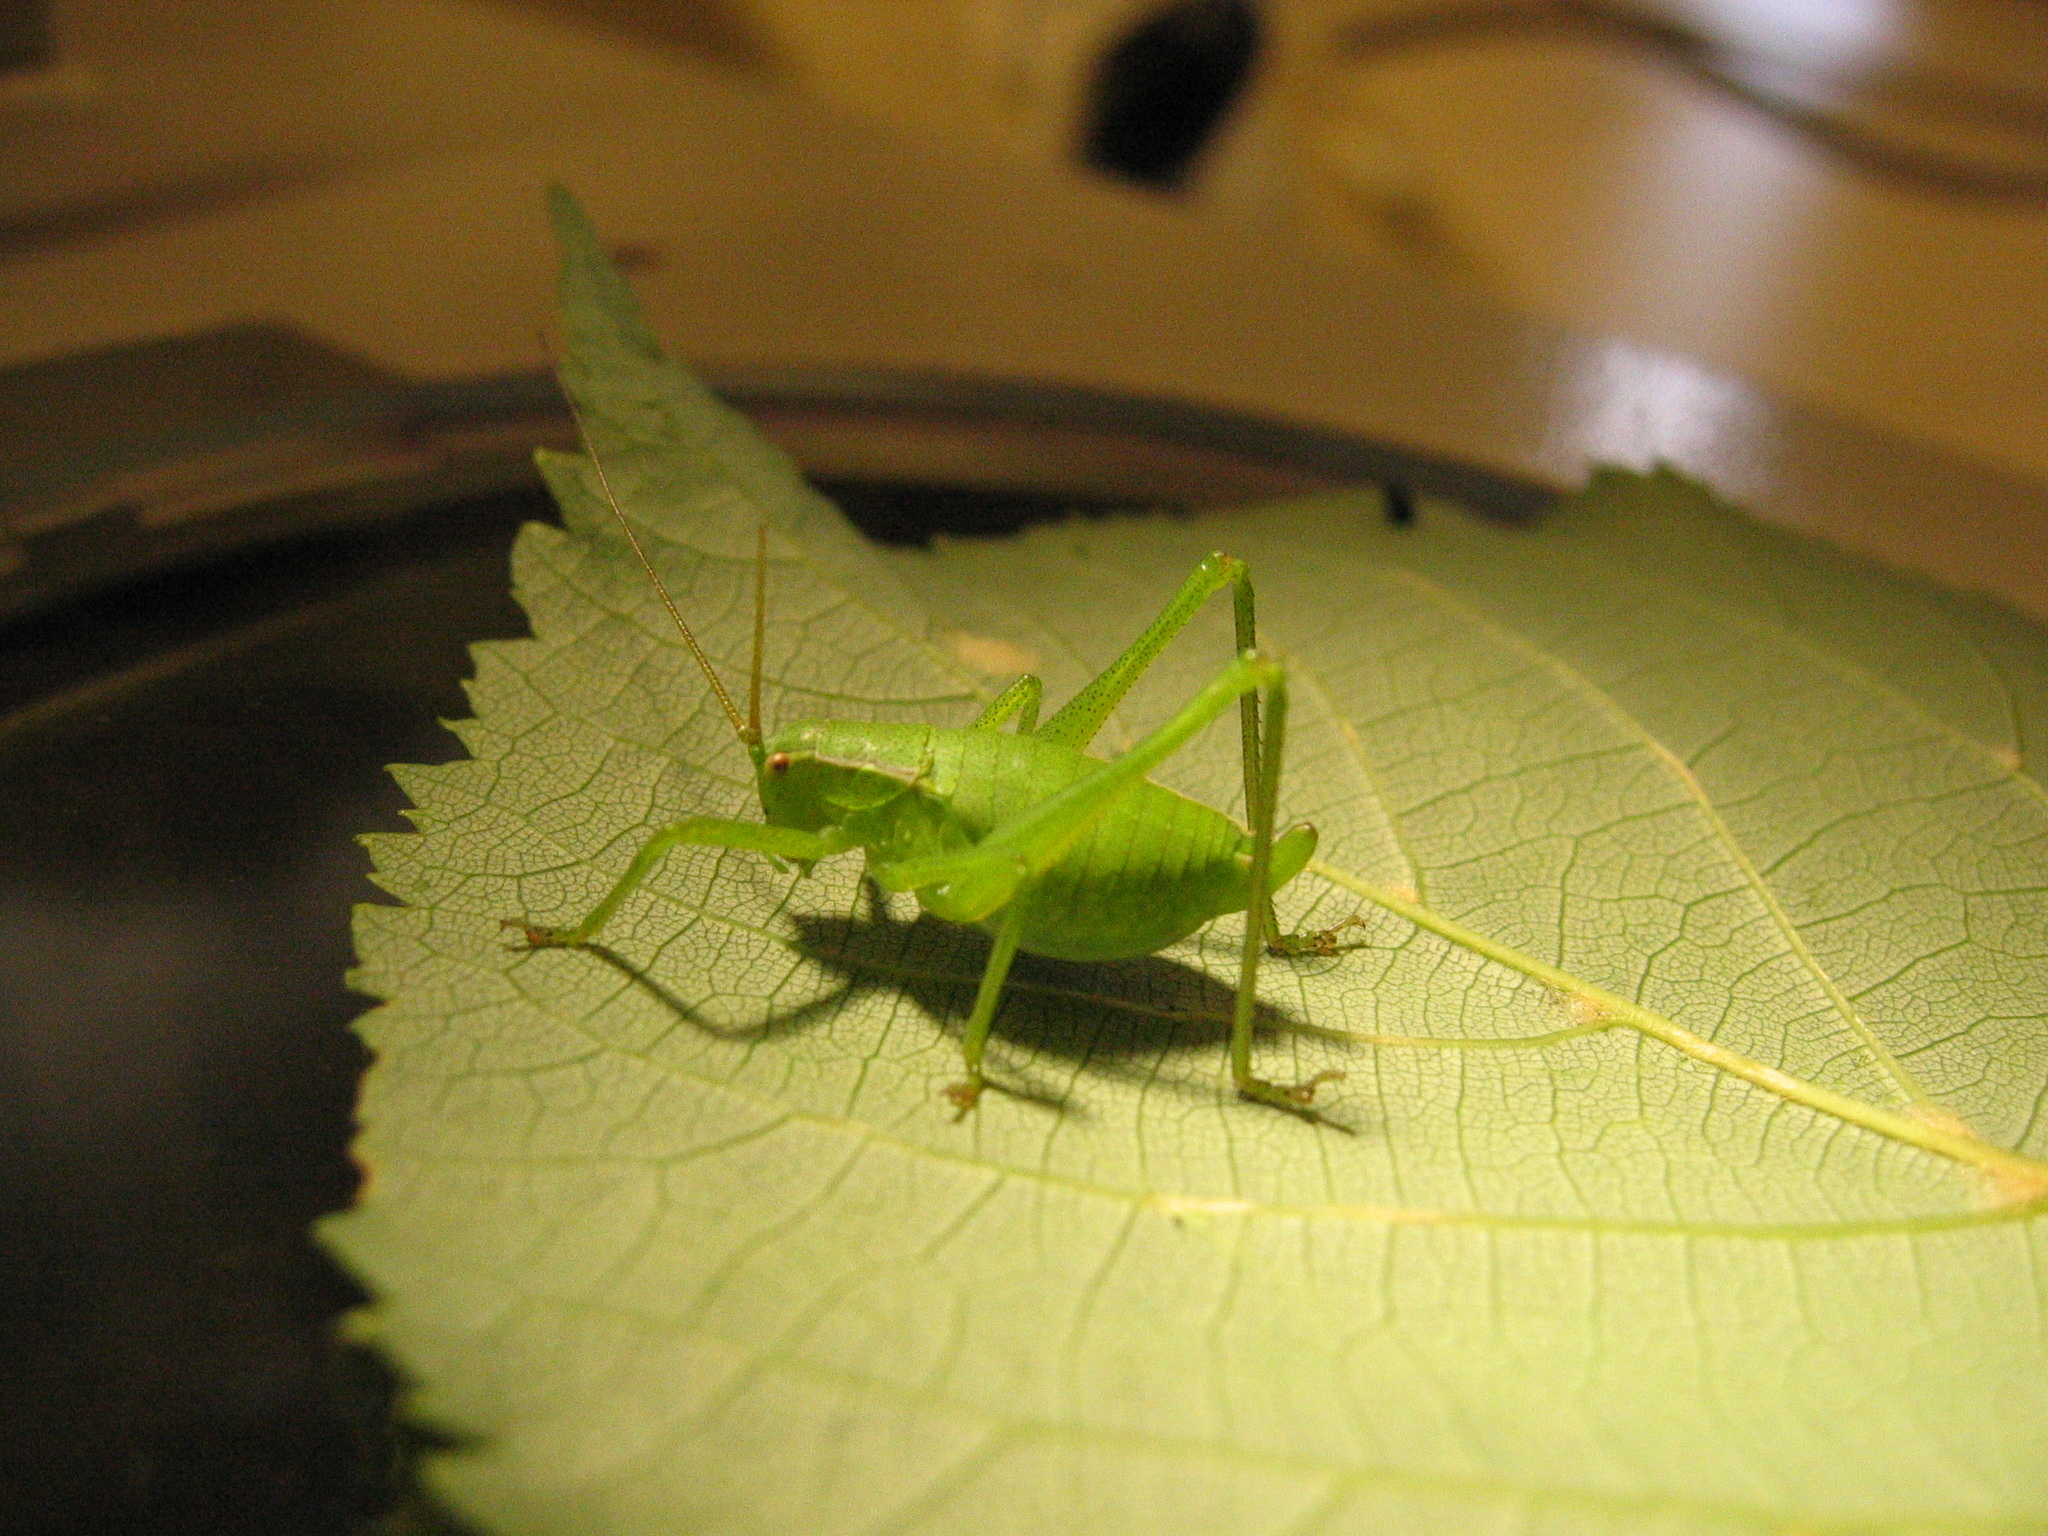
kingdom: Animalia
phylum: Arthropoda
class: Insecta
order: Orthoptera
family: Tettigoniidae
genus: Isophya
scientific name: Isophya pienensis
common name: Pieninsky' plump bush-cricket
